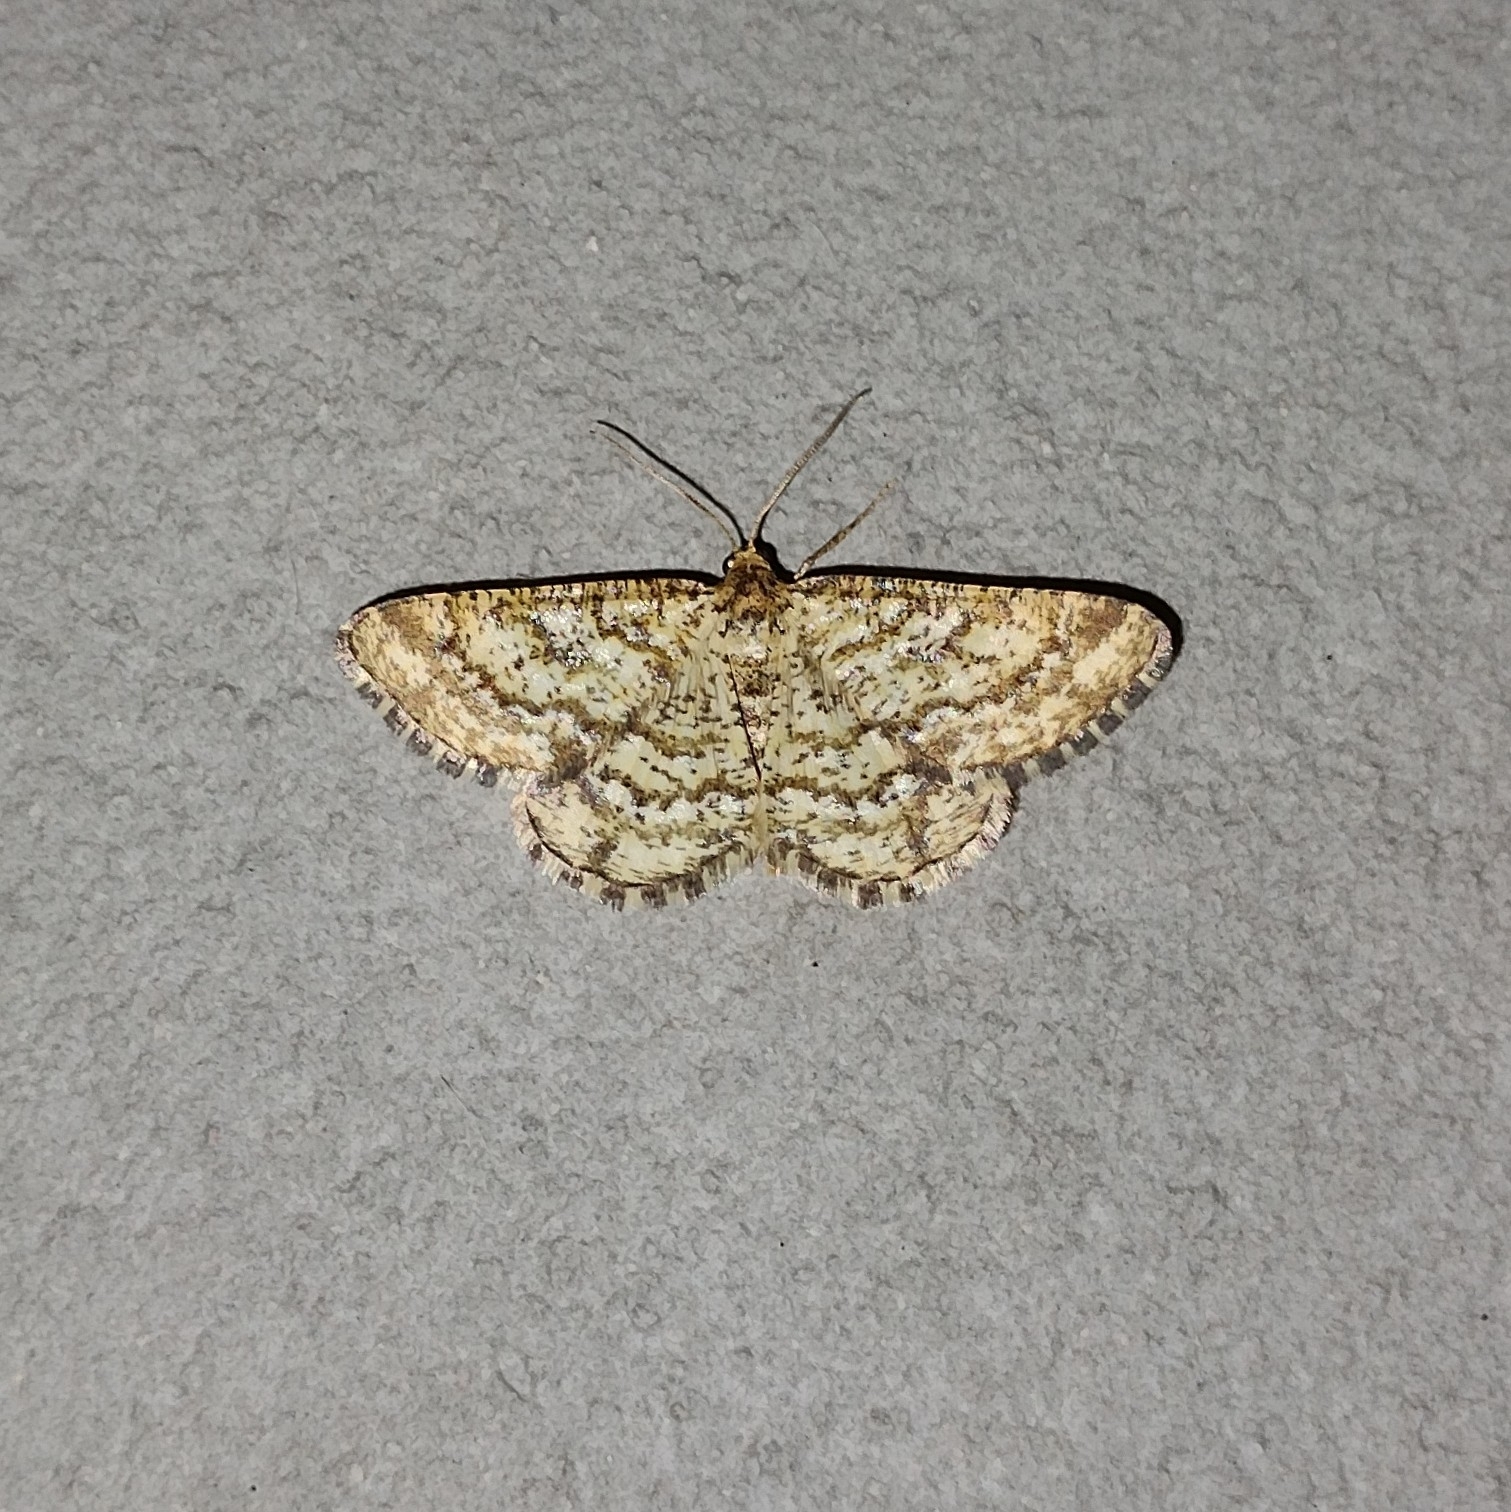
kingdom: Animalia
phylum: Arthropoda
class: Insecta
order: Lepidoptera
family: Geometridae
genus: Heliomata
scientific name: Heliomata glarearia
